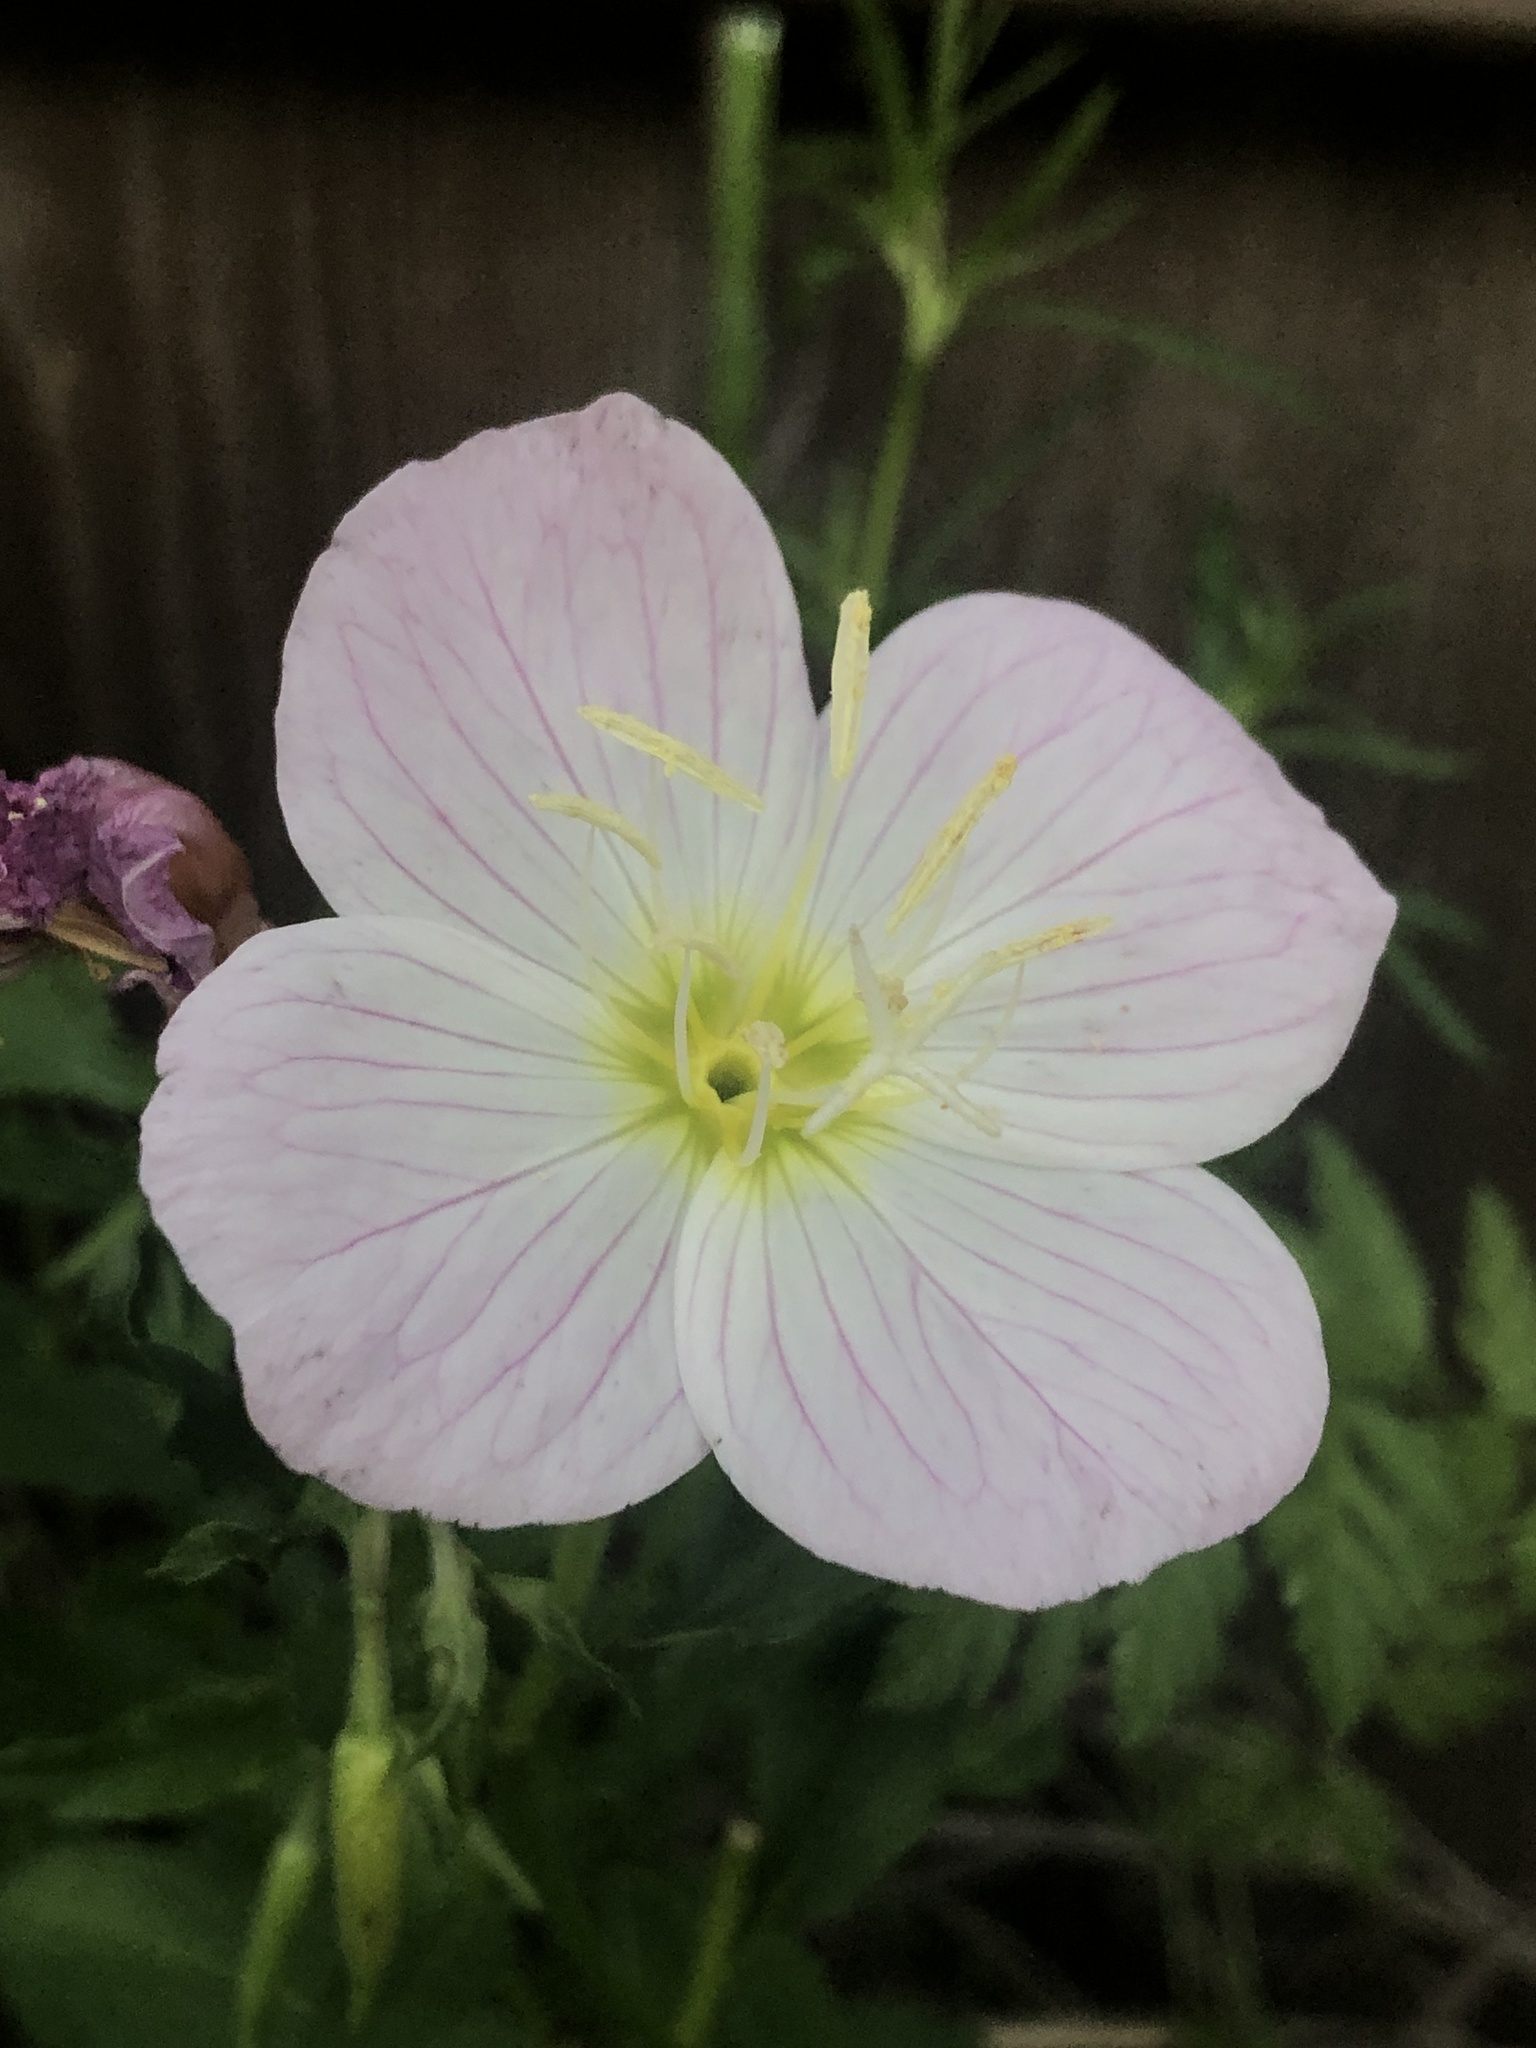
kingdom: Plantae
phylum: Tracheophyta
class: Magnoliopsida
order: Myrtales
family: Onagraceae
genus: Oenothera
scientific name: Oenothera speciosa
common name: White evening-primrose
